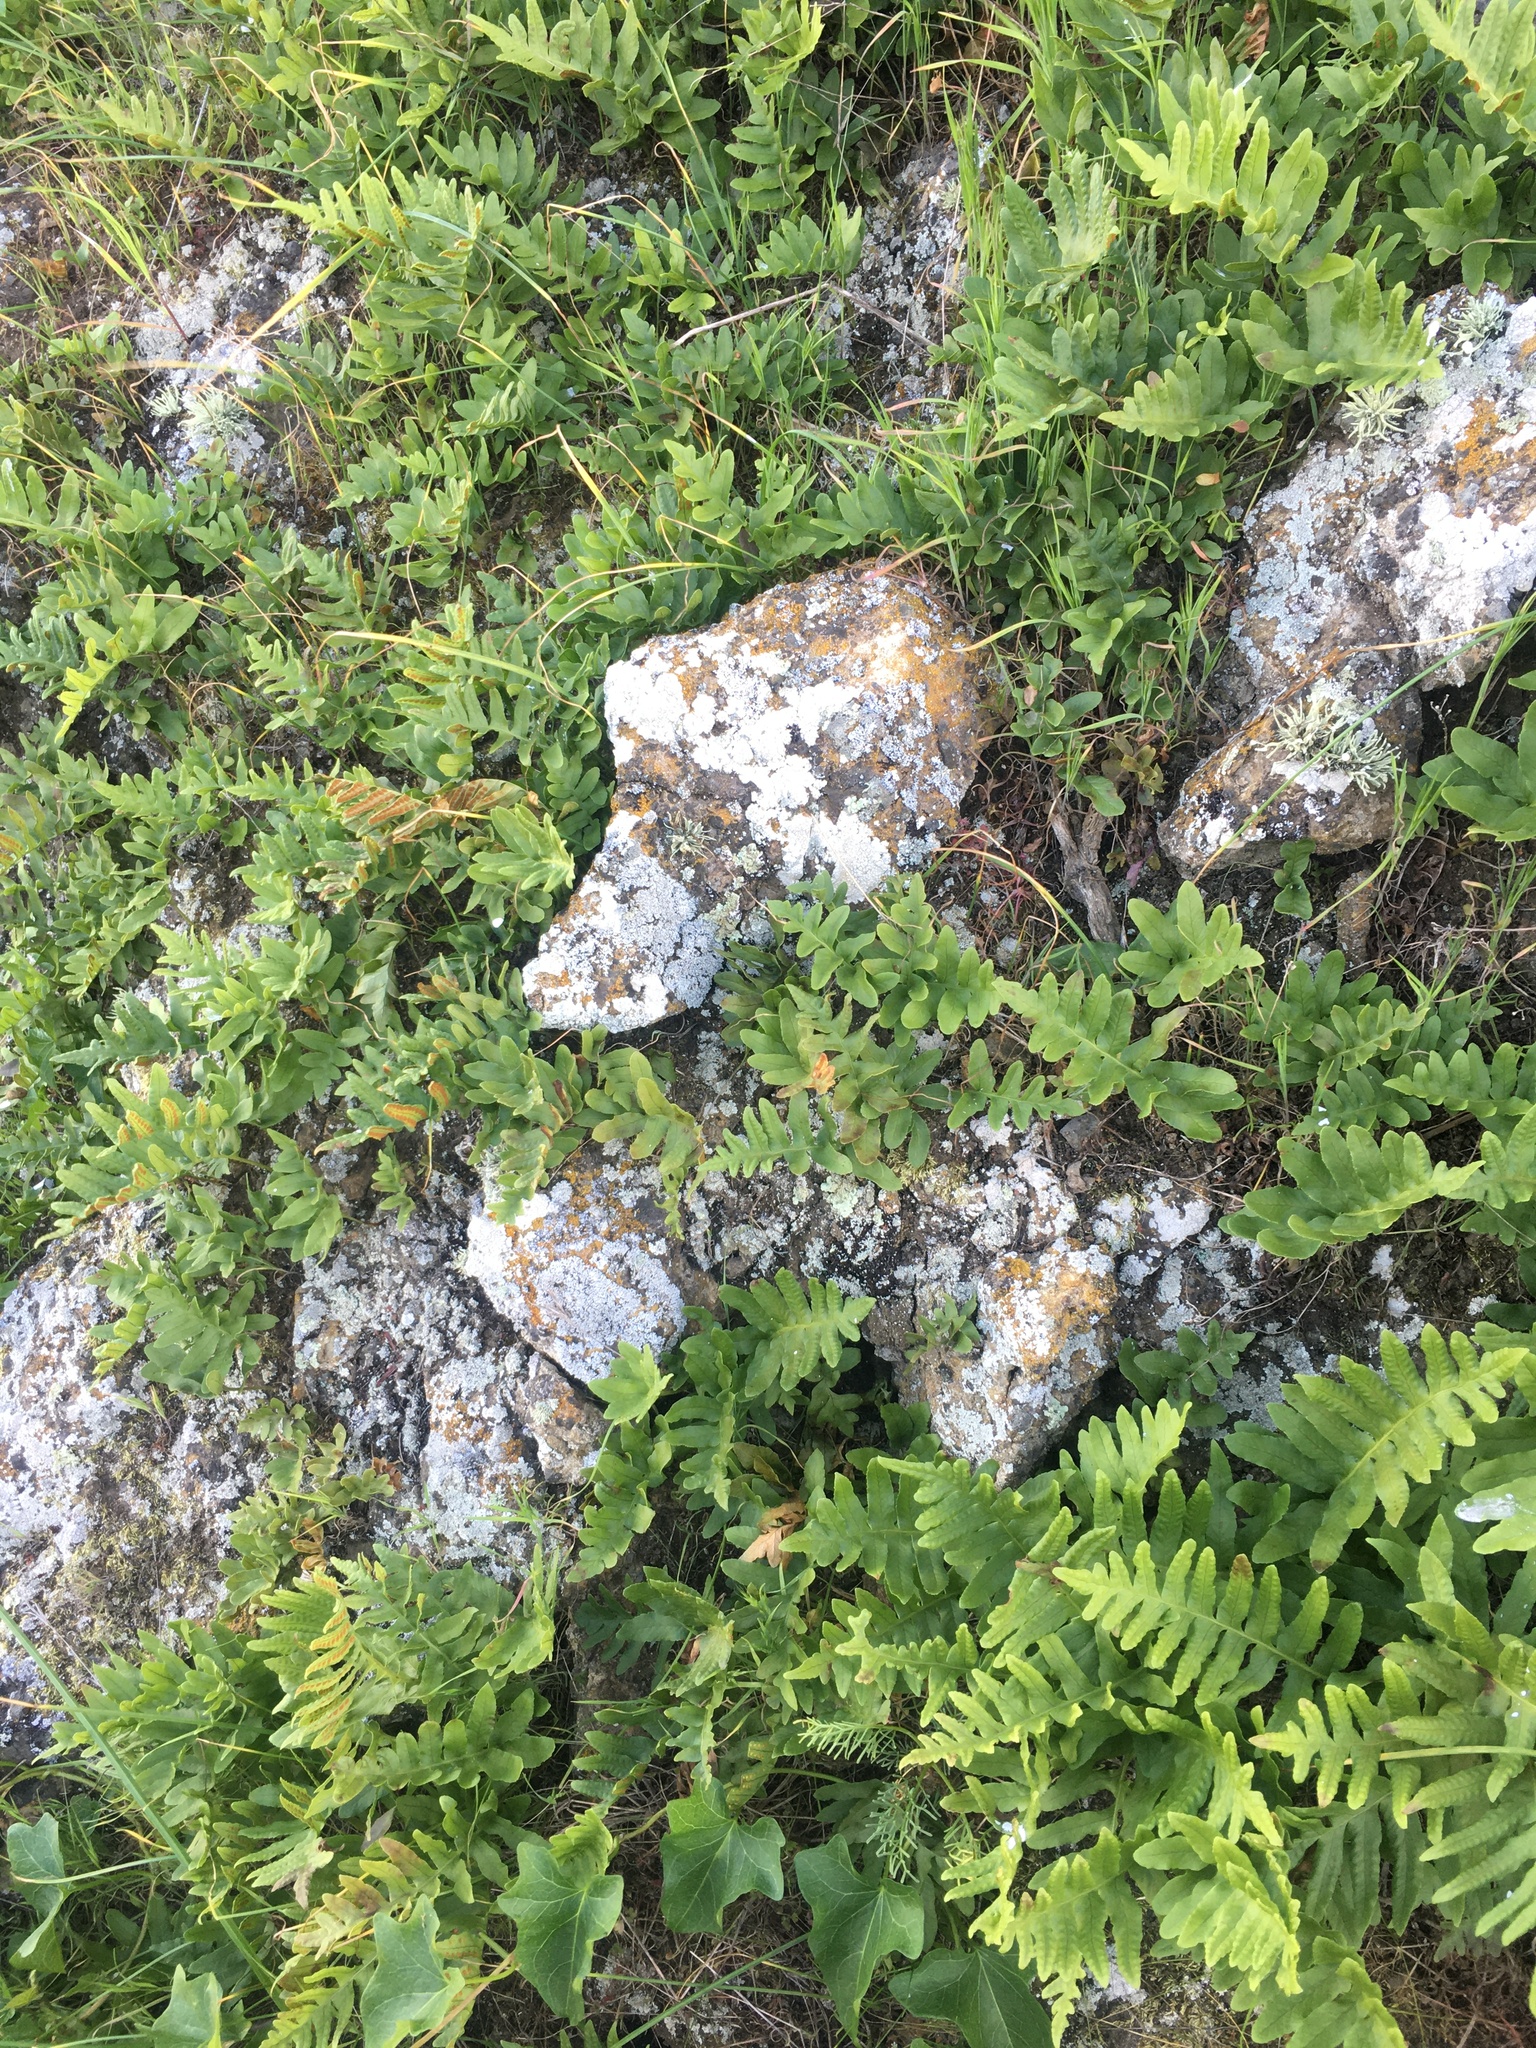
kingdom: Plantae
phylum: Tracheophyta
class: Polypodiopsida
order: Polypodiales
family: Polypodiaceae
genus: Polypodium
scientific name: Polypodium californicum
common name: California polypody
